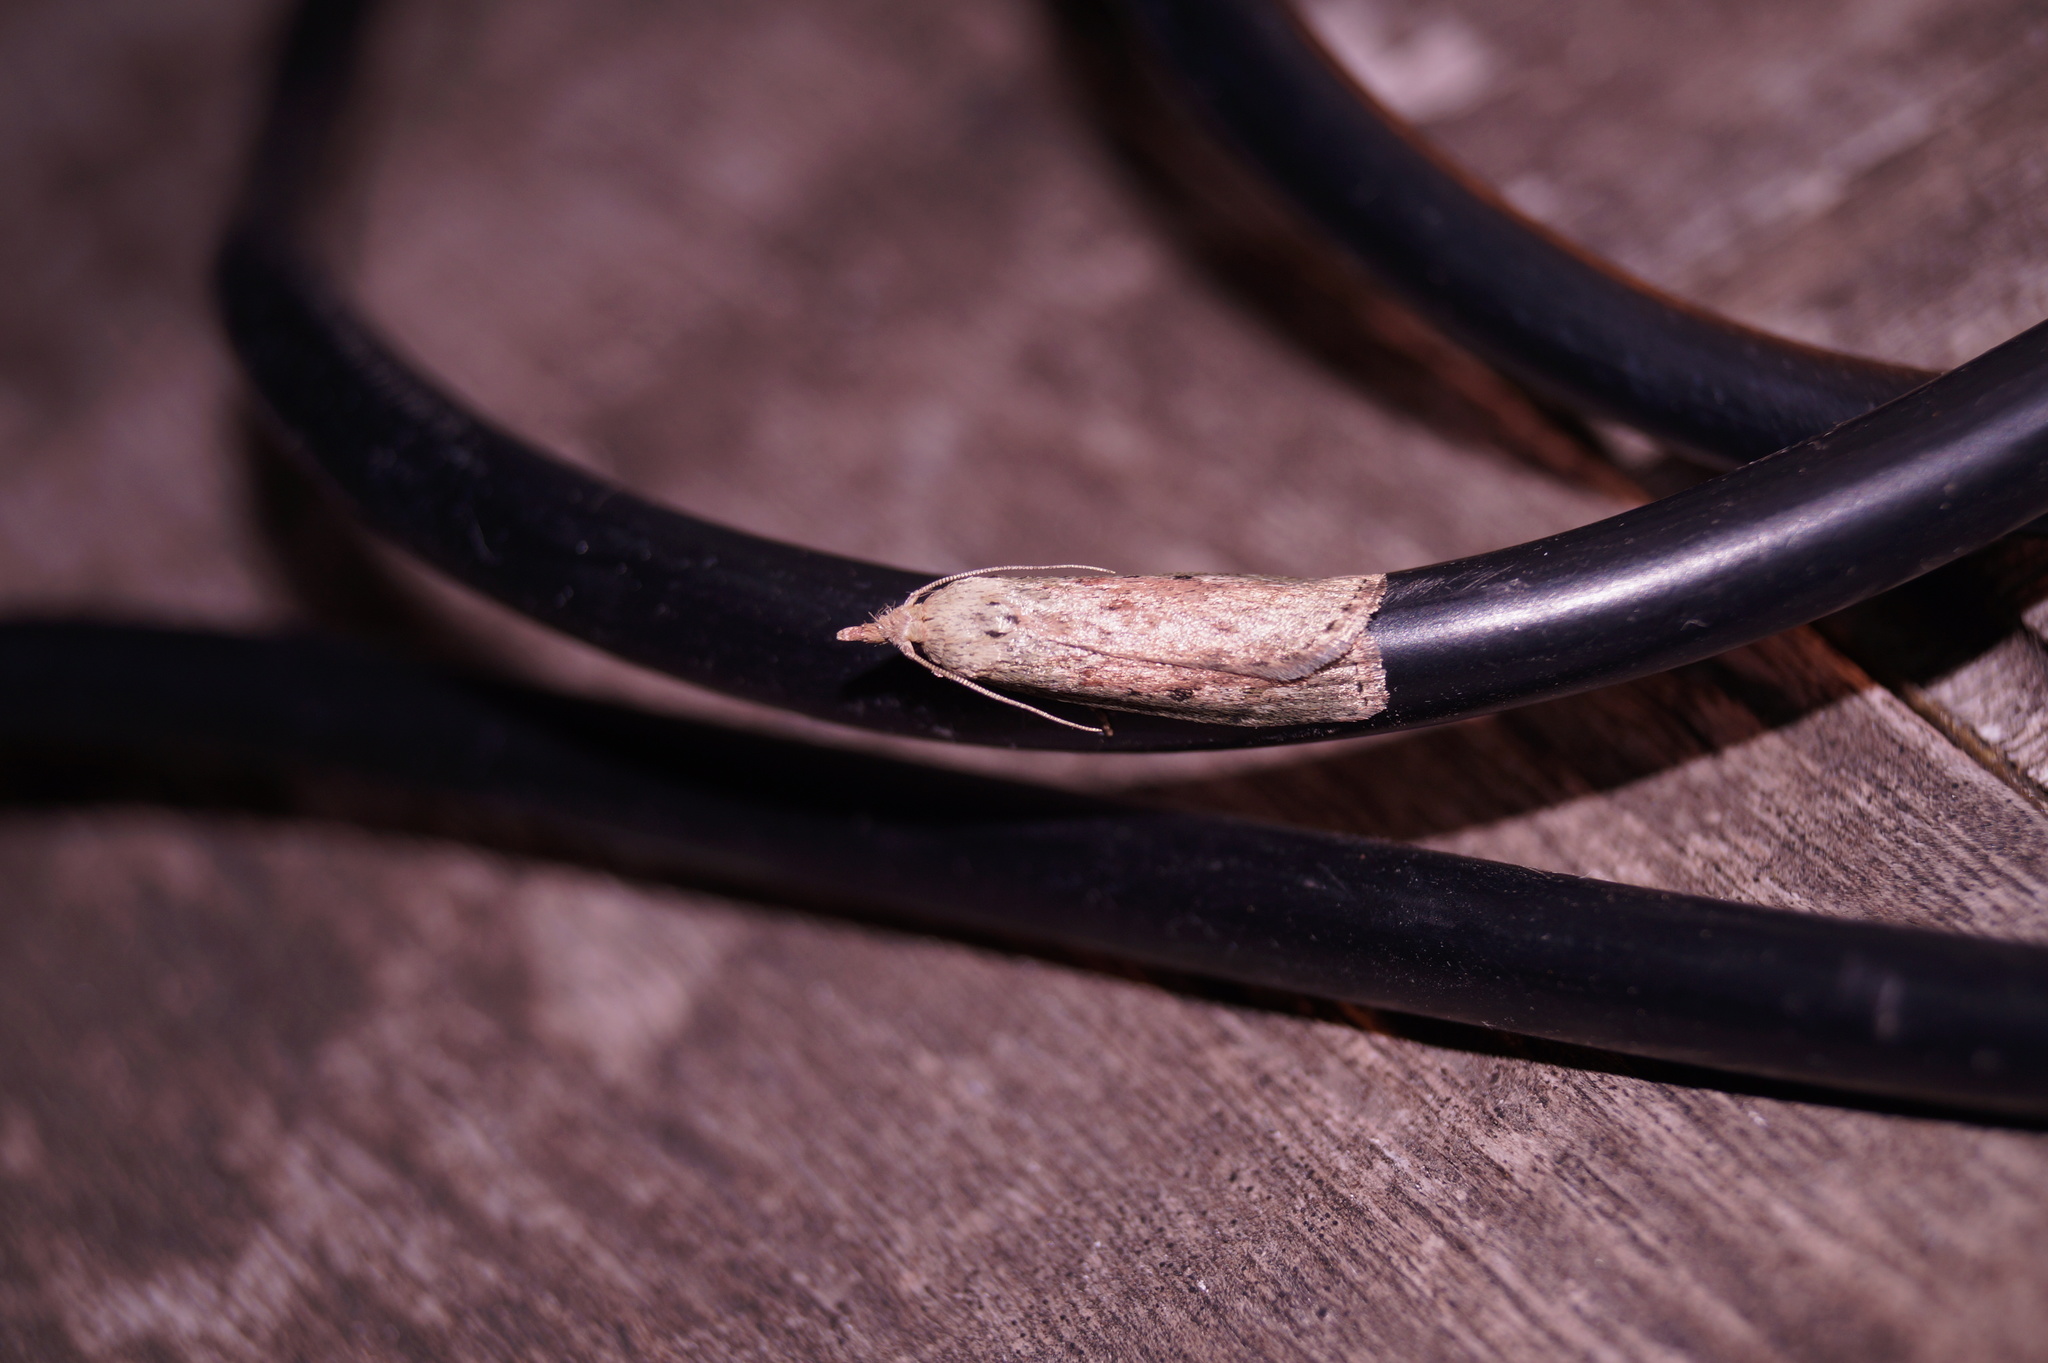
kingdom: Animalia
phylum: Arthropoda
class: Insecta
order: Lepidoptera
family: Pyralidae
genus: Aphomia
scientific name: Aphomia sociella
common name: Bee moth
